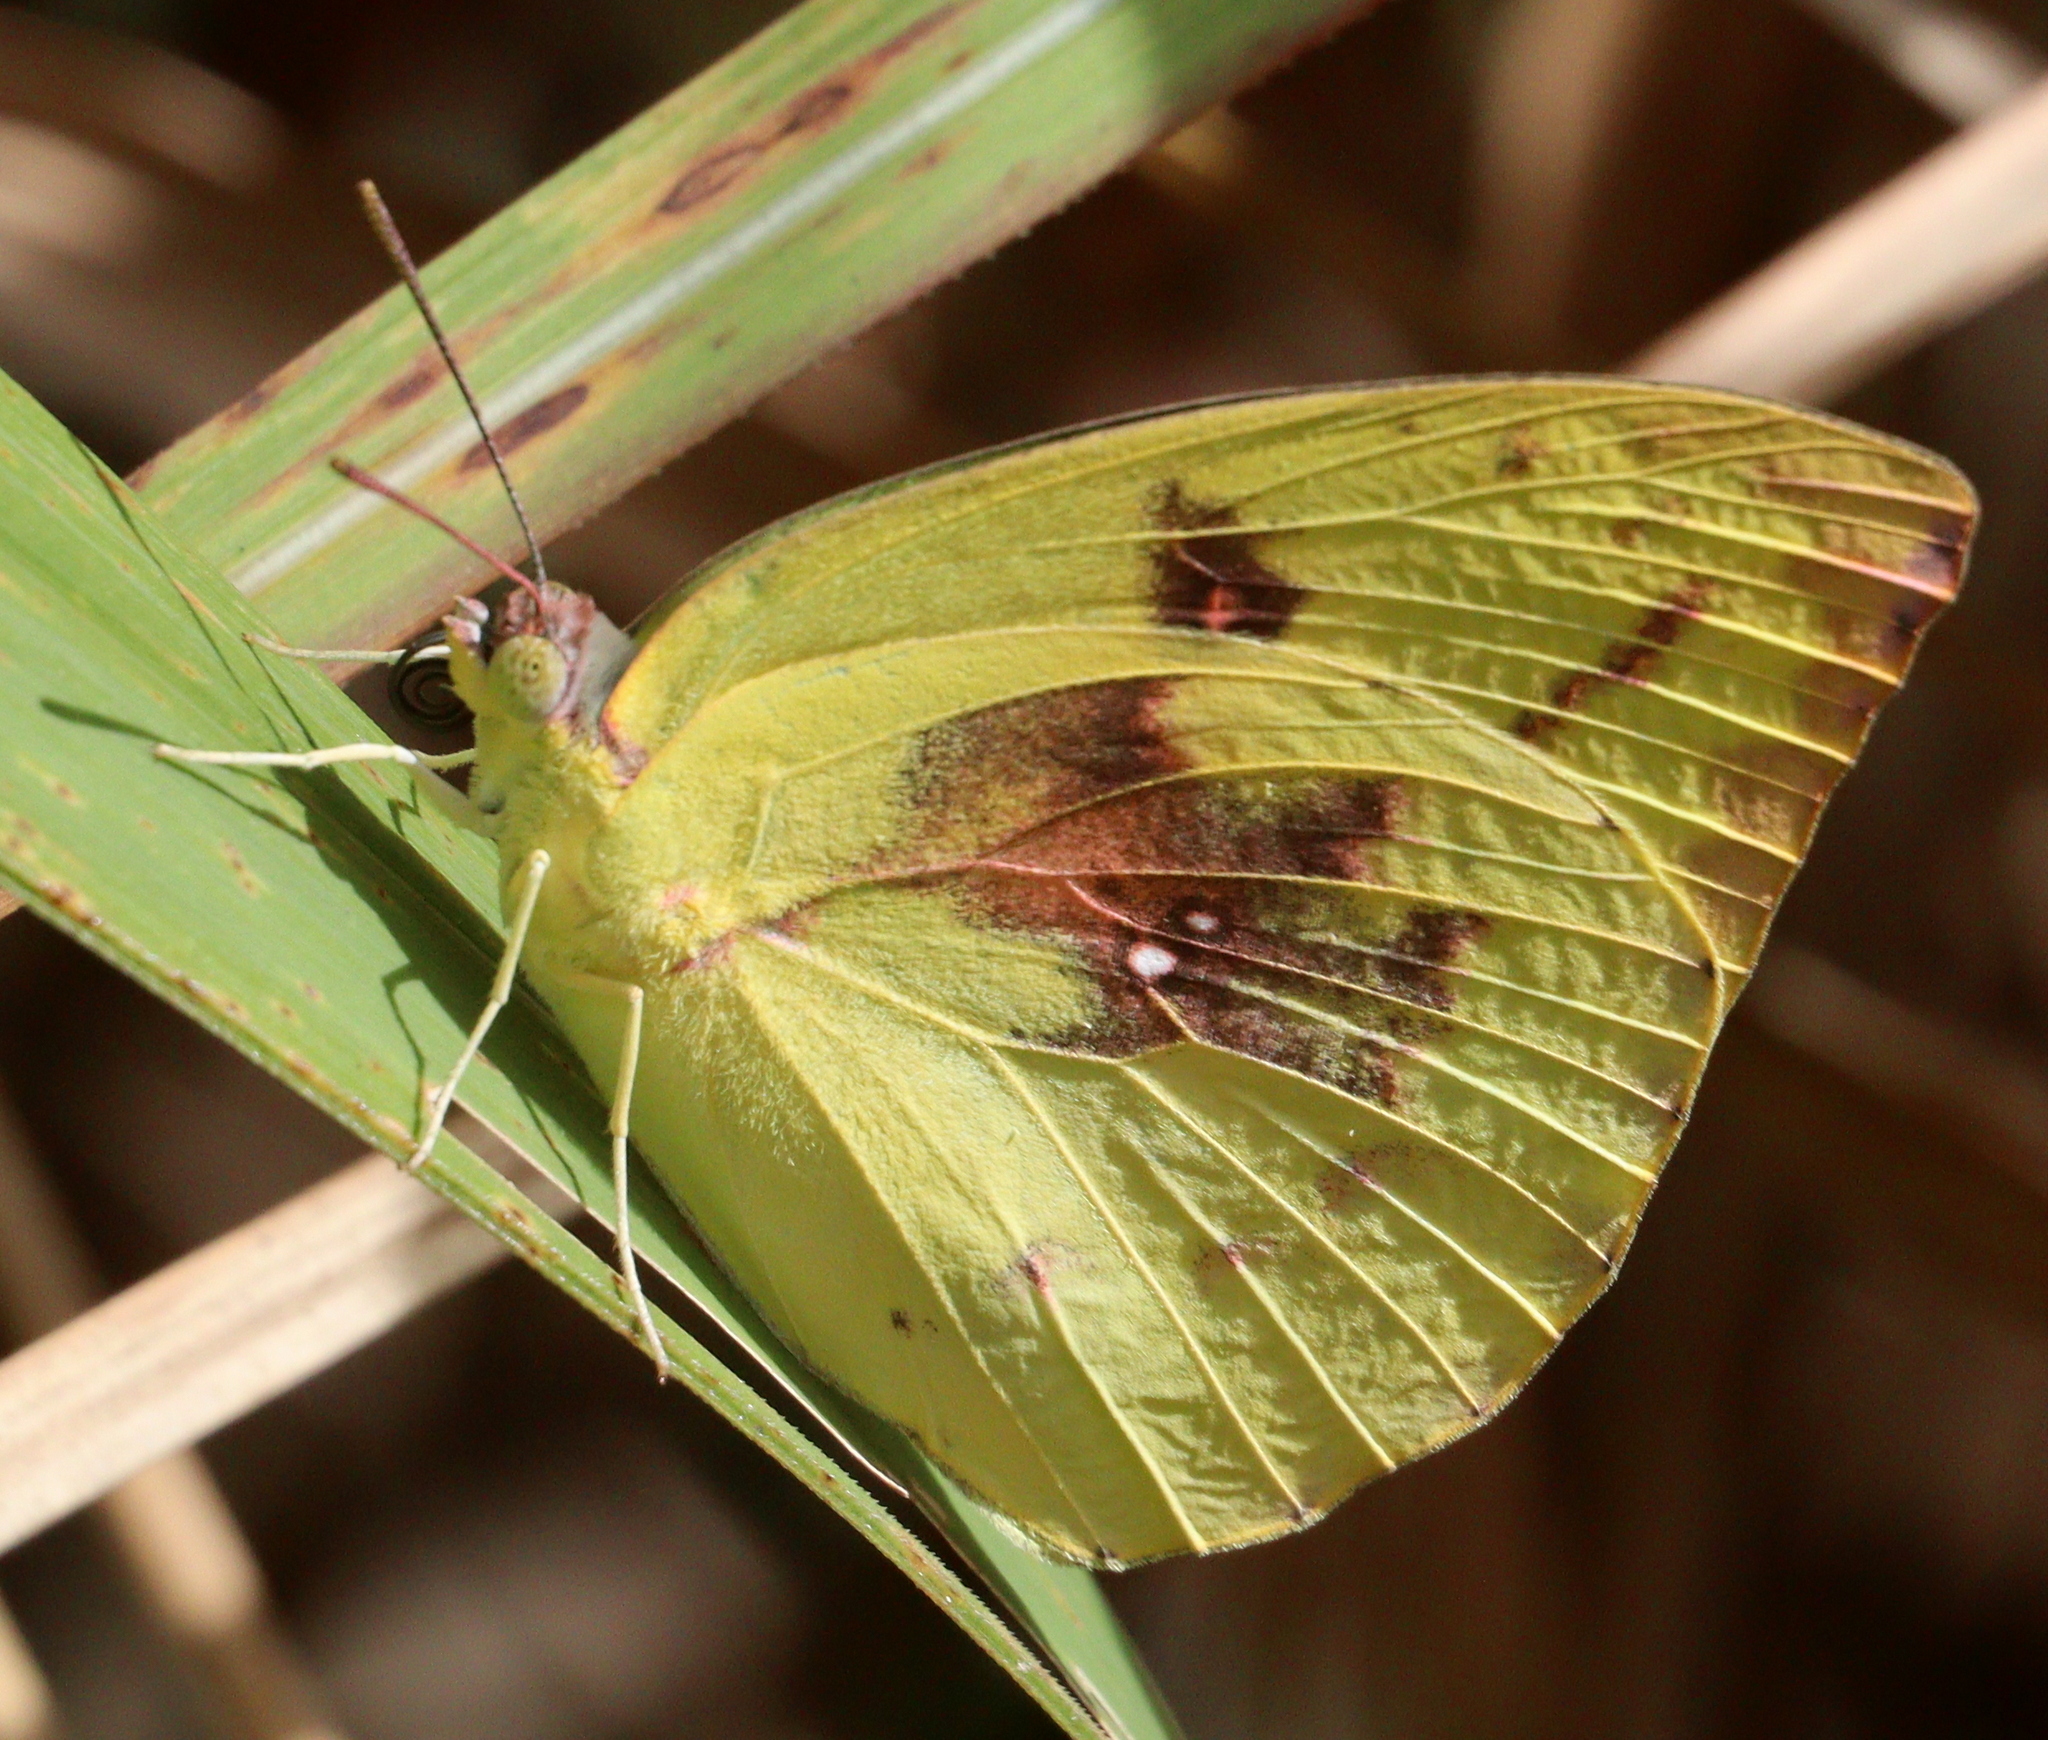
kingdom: Animalia
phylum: Arthropoda
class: Insecta
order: Lepidoptera
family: Pieridae
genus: Catopsilia
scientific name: Catopsilia pomona
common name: Common emigrant
